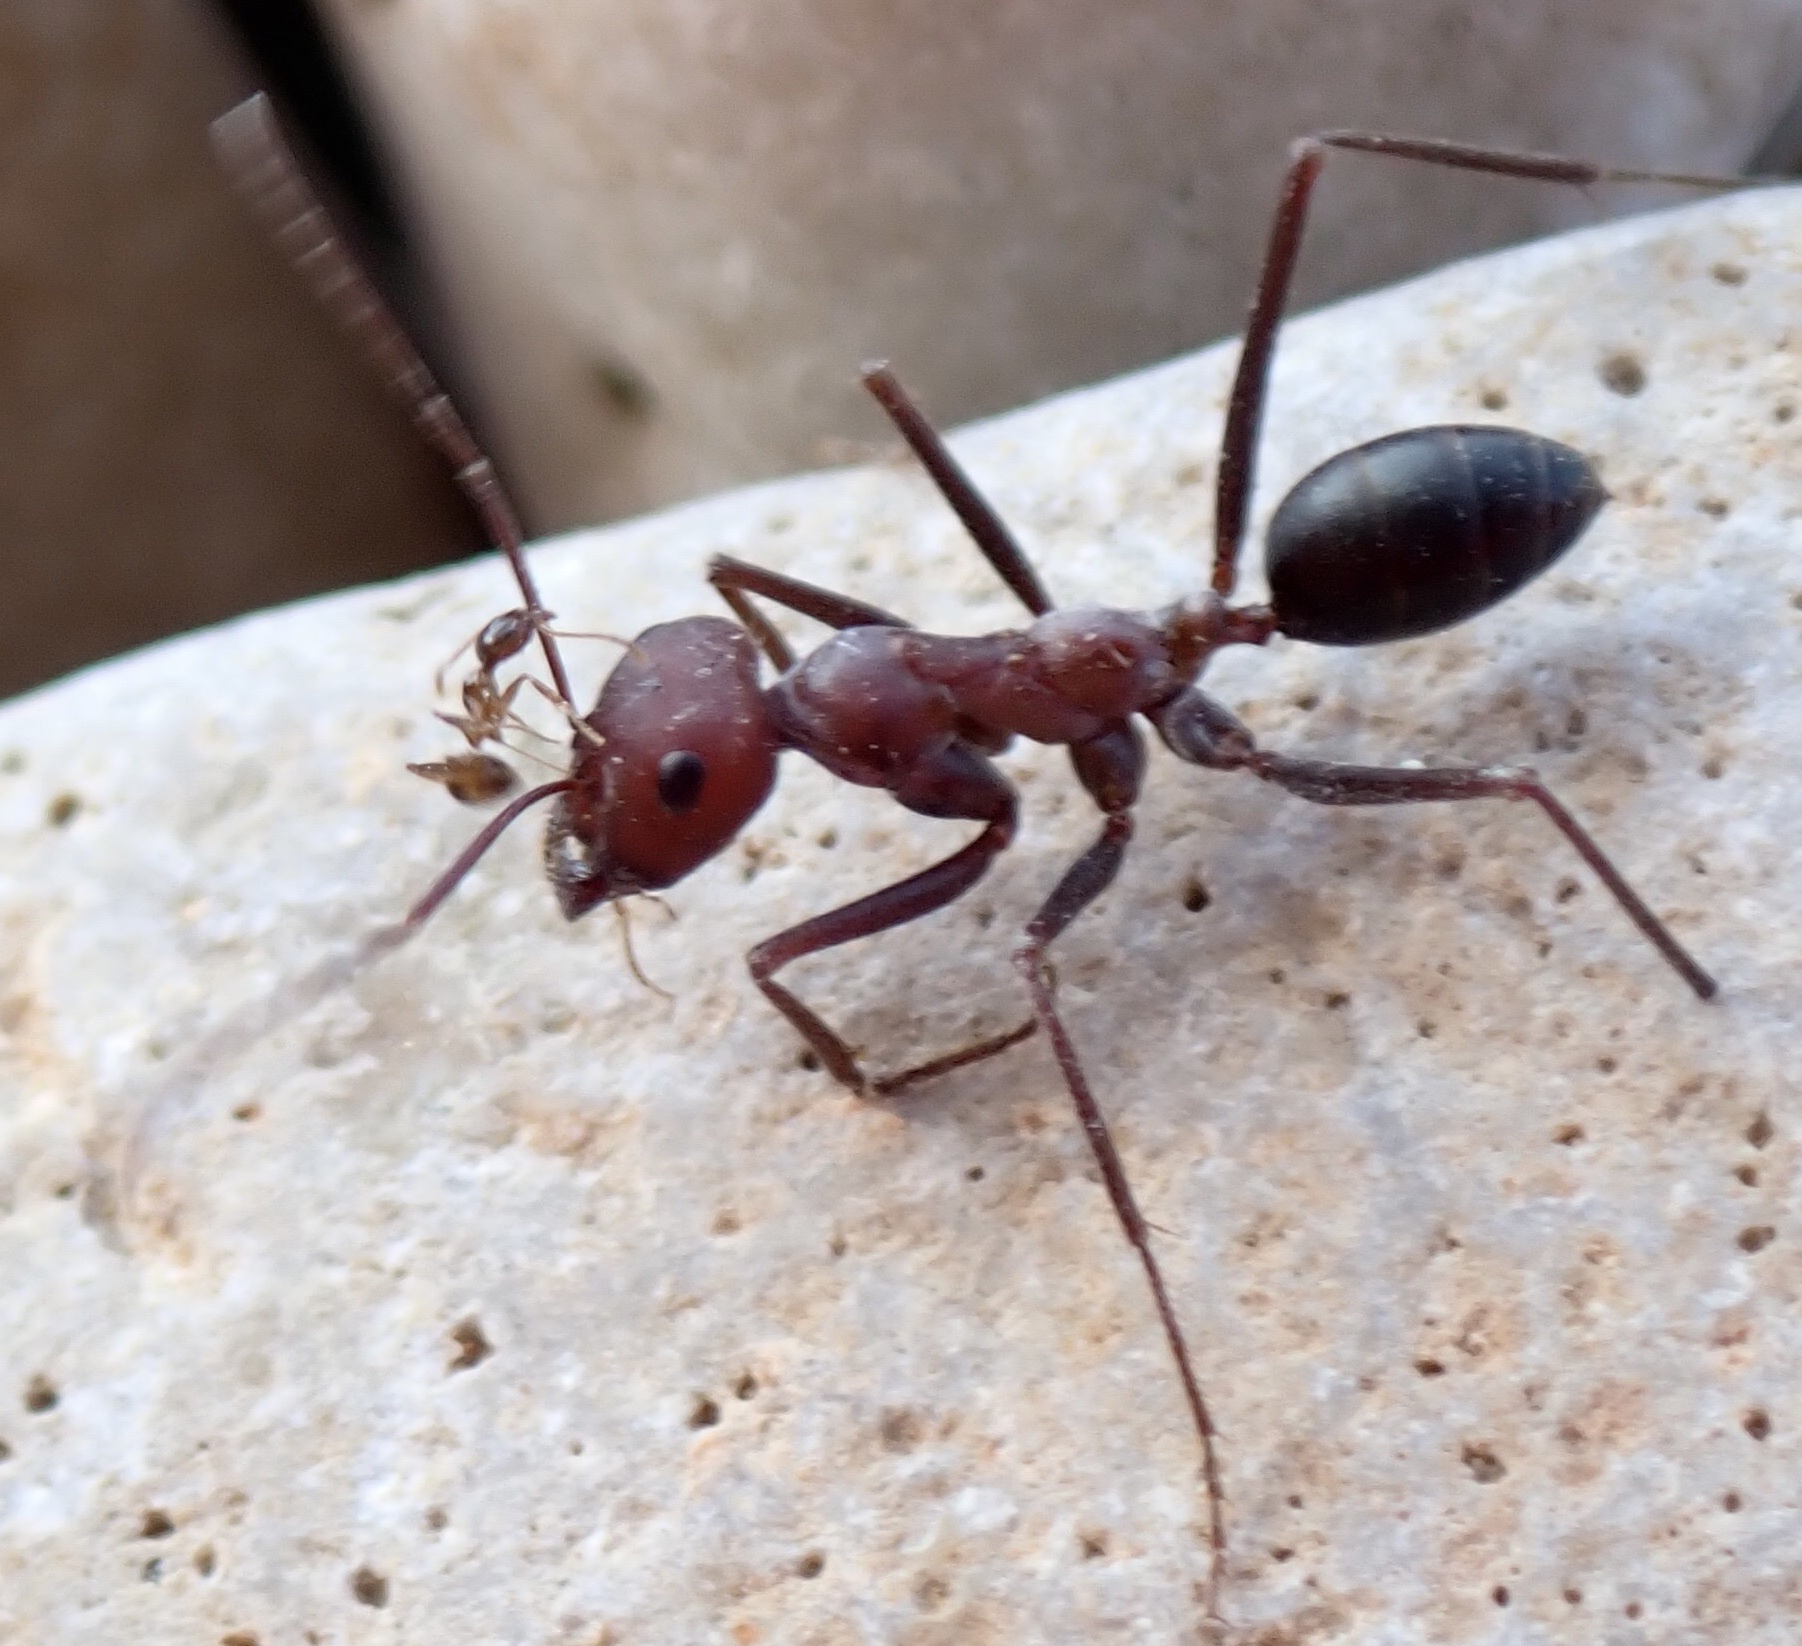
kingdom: Animalia
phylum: Arthropoda
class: Insecta
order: Hymenoptera
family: Formicidae
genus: Cataglyphis
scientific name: Cataglyphis nodus
